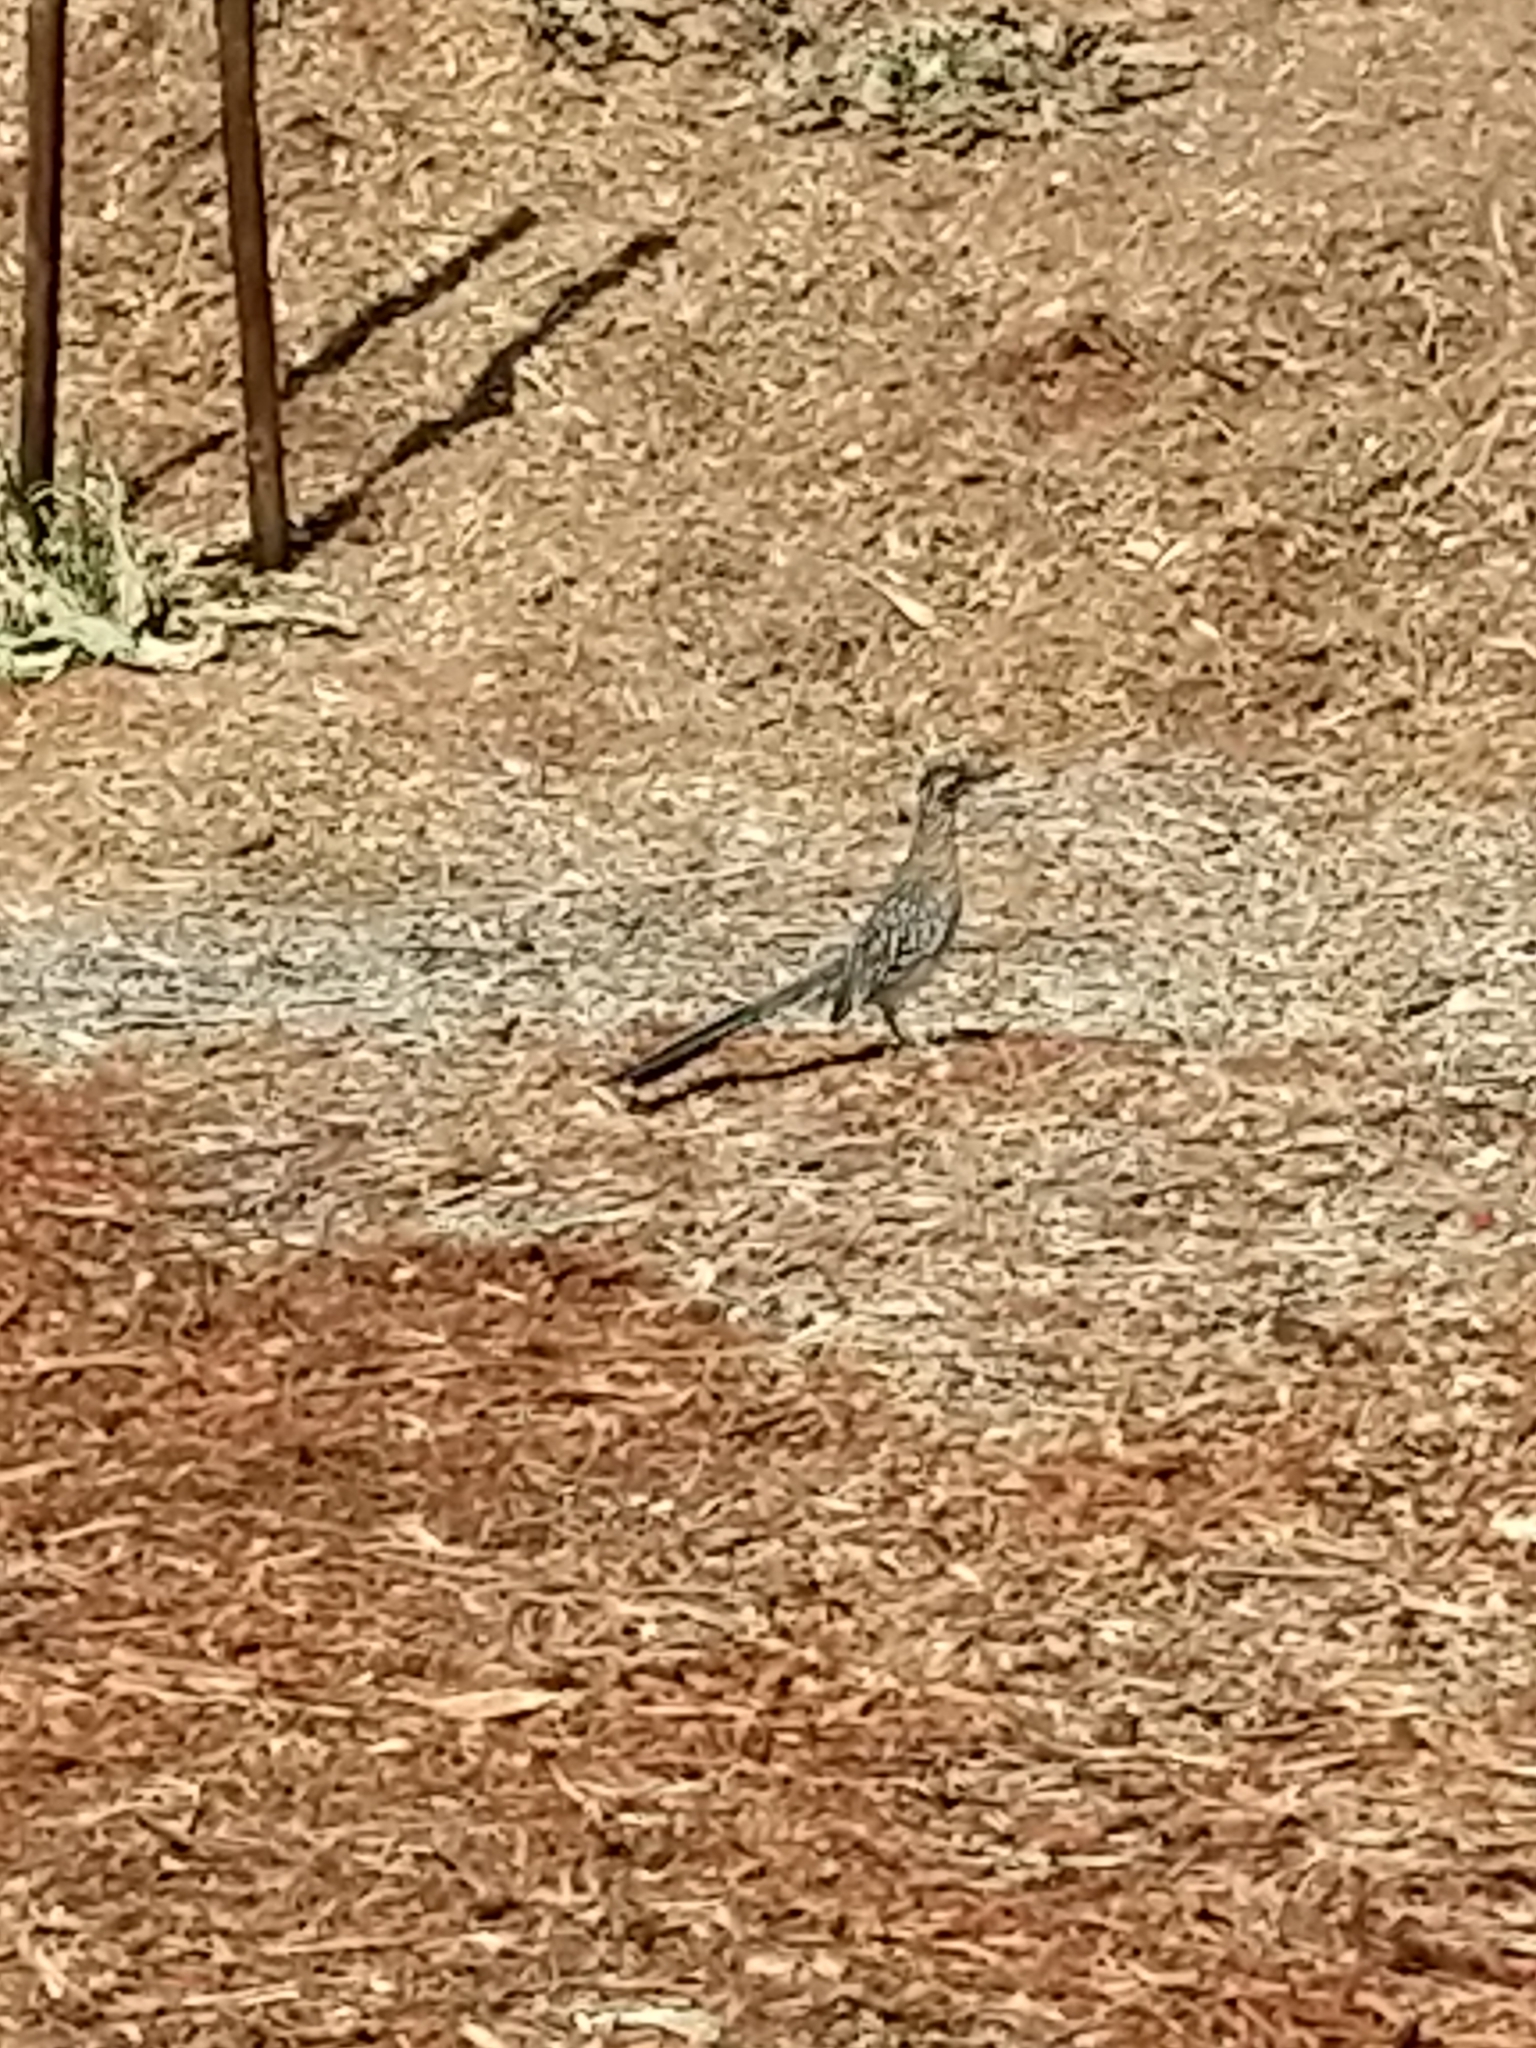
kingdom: Animalia
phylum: Chordata
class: Aves
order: Cuculiformes
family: Cuculidae
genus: Geococcyx
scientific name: Geococcyx californianus
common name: Greater roadrunner
